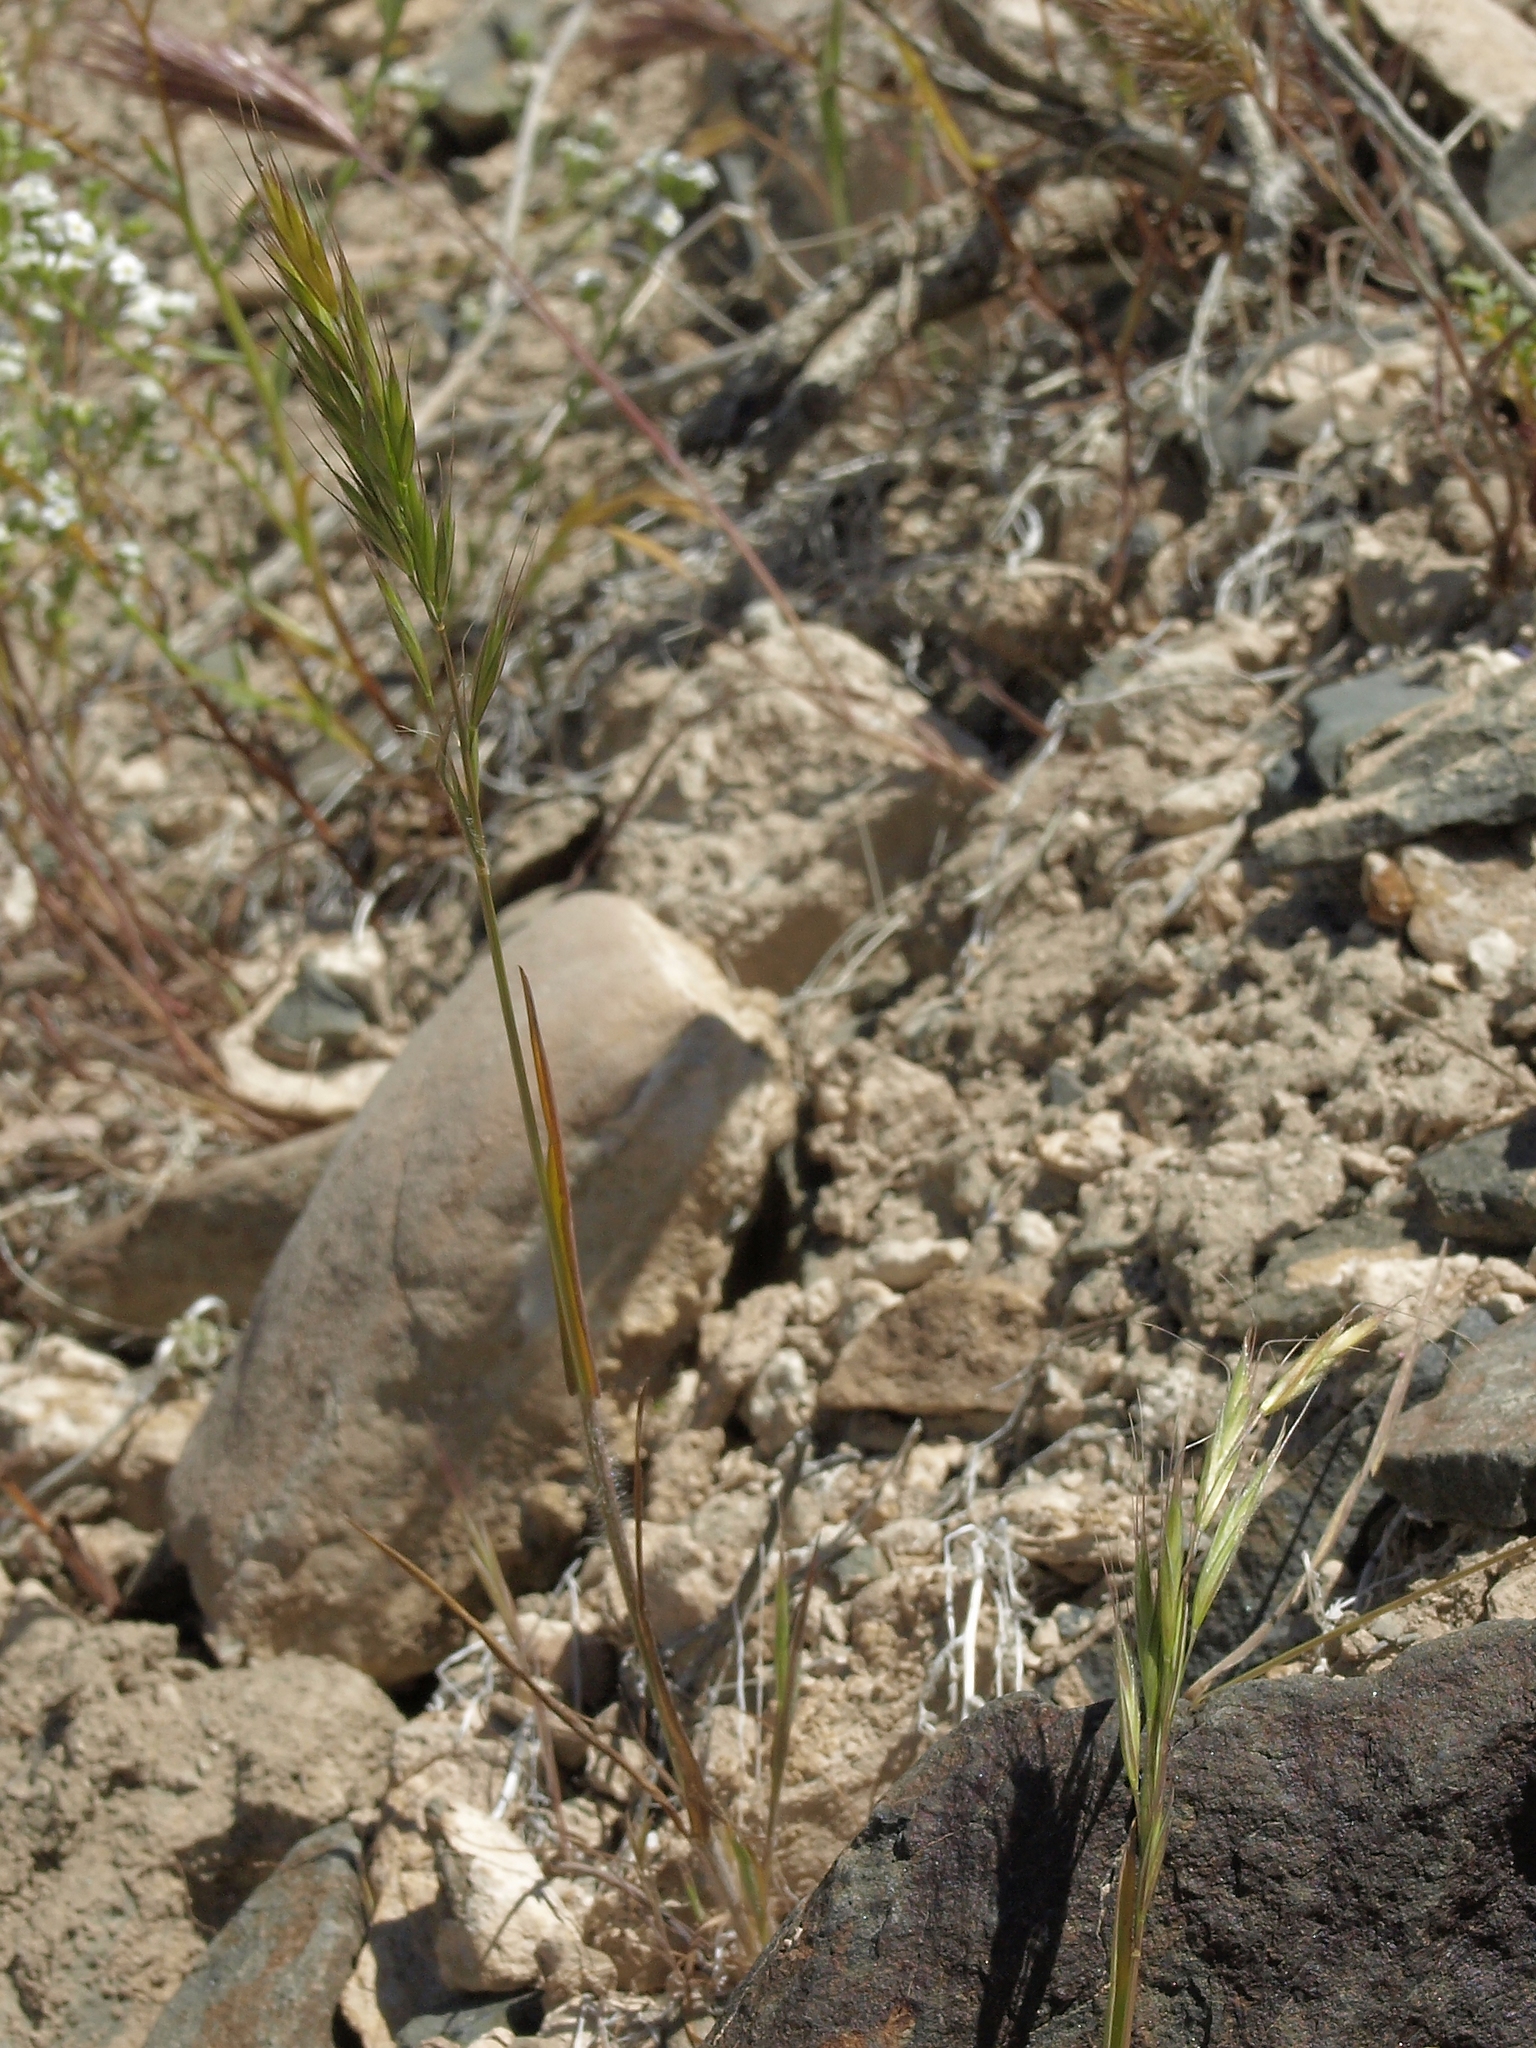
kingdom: Plantae
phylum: Tracheophyta
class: Liliopsida
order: Poales
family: Poaceae
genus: Bromus
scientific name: Bromus berteroanus
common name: Chilean chess
